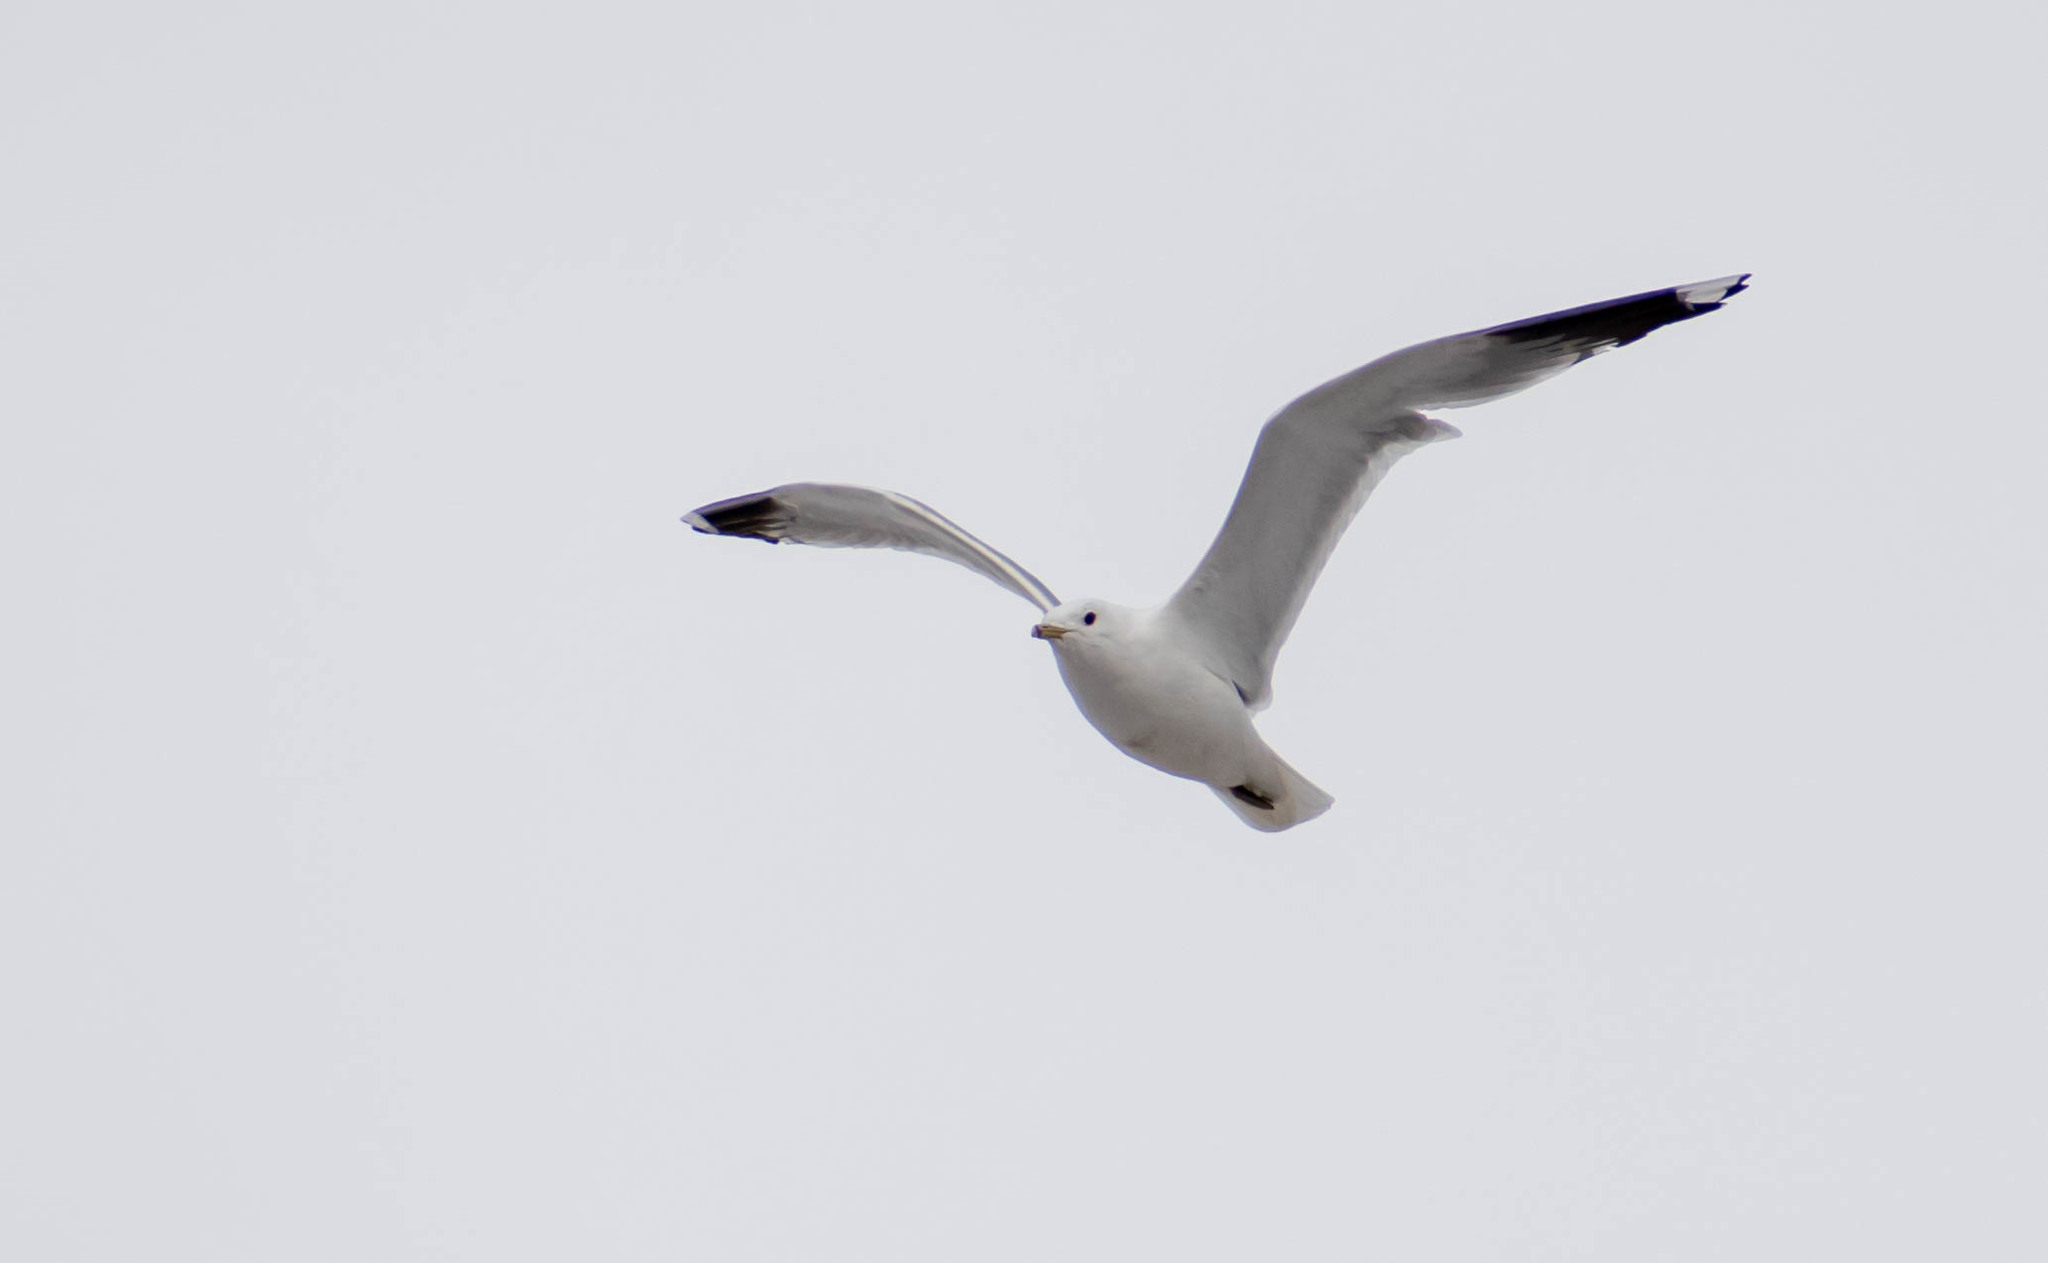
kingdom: Animalia
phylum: Chordata
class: Aves
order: Charadriiformes
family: Laridae
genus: Larus
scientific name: Larus canus
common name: Mew gull
